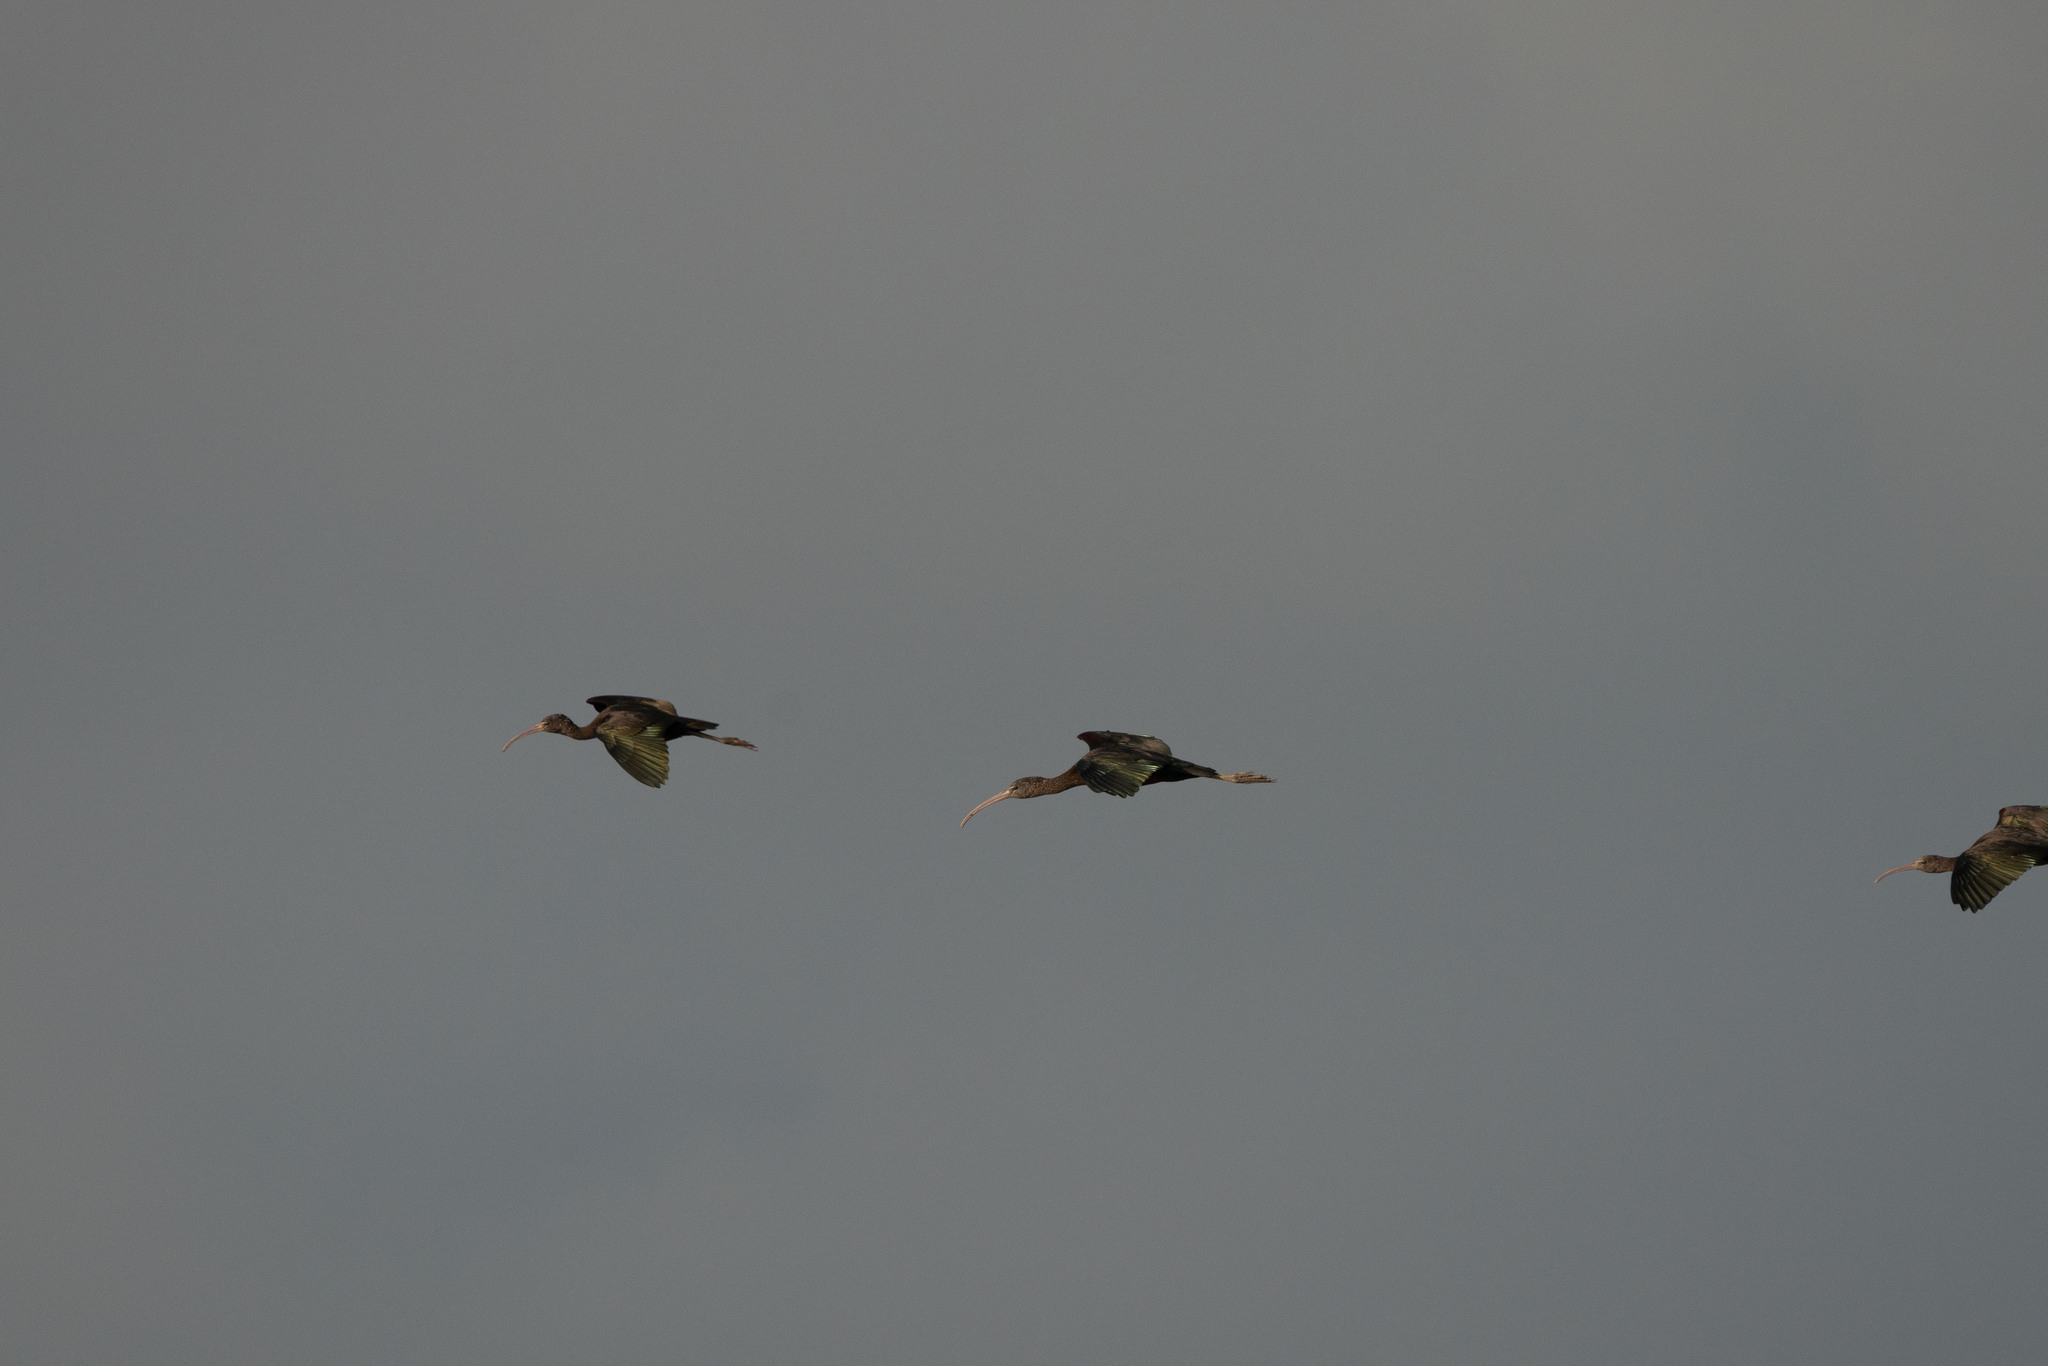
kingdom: Animalia
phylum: Chordata
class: Aves
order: Pelecaniformes
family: Threskiornithidae
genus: Plegadis
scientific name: Plegadis falcinellus
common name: Glossy ibis
